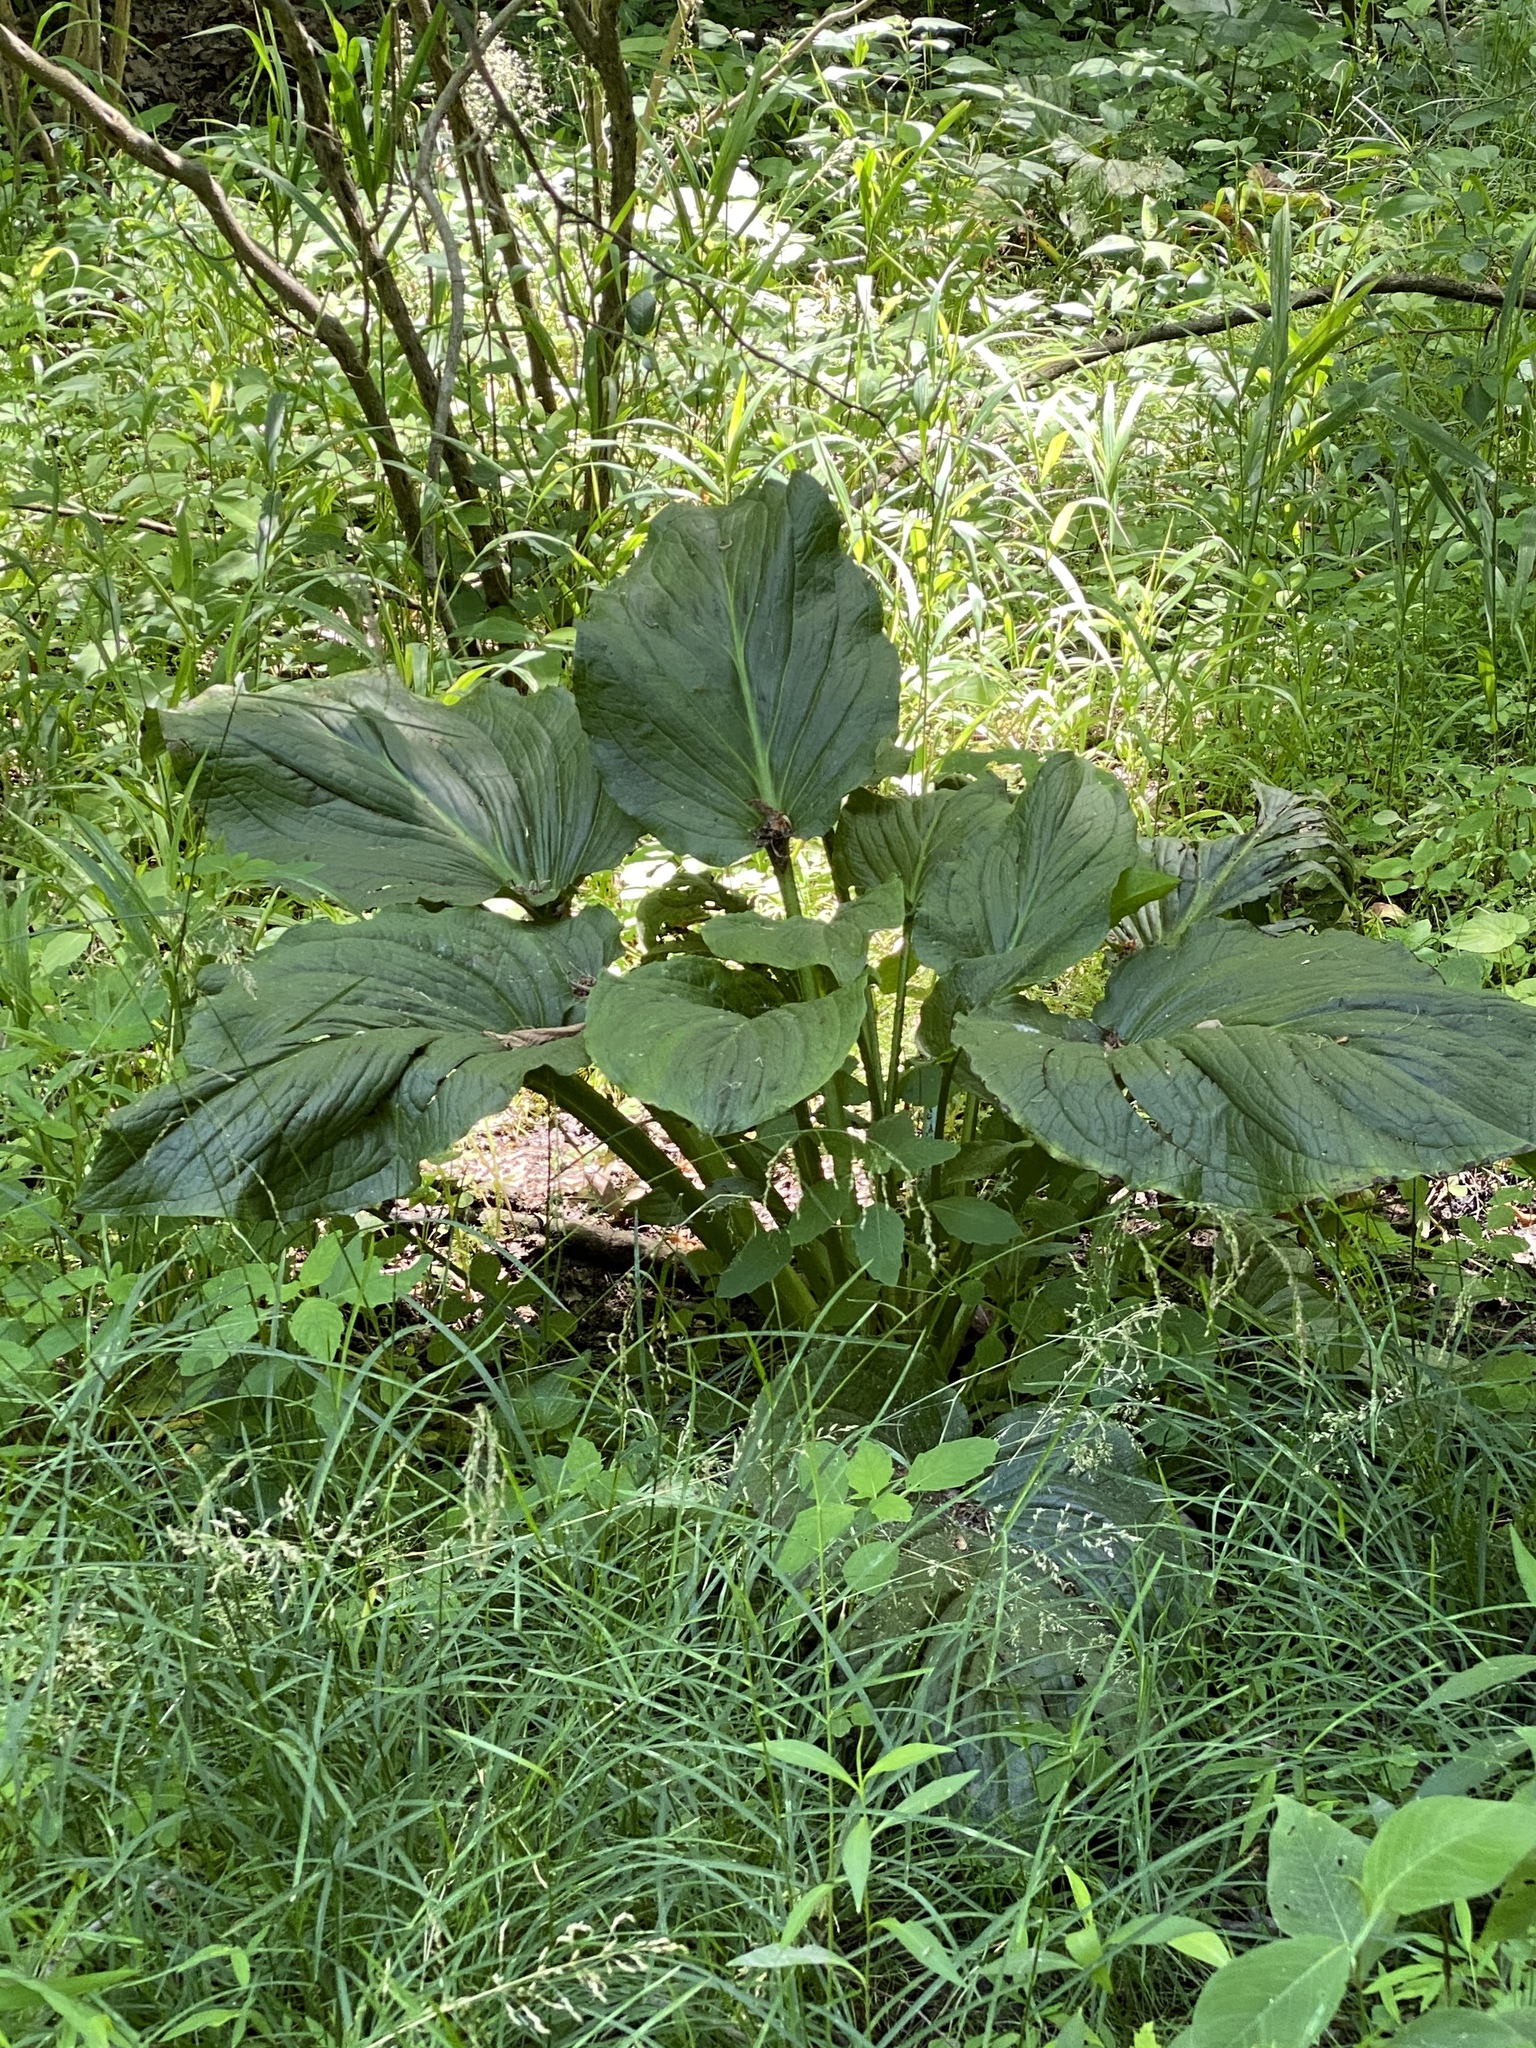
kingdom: Plantae
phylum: Tracheophyta
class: Liliopsida
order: Alismatales
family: Araceae
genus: Symplocarpus
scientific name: Symplocarpus foetidus
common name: Eastern skunk cabbage
